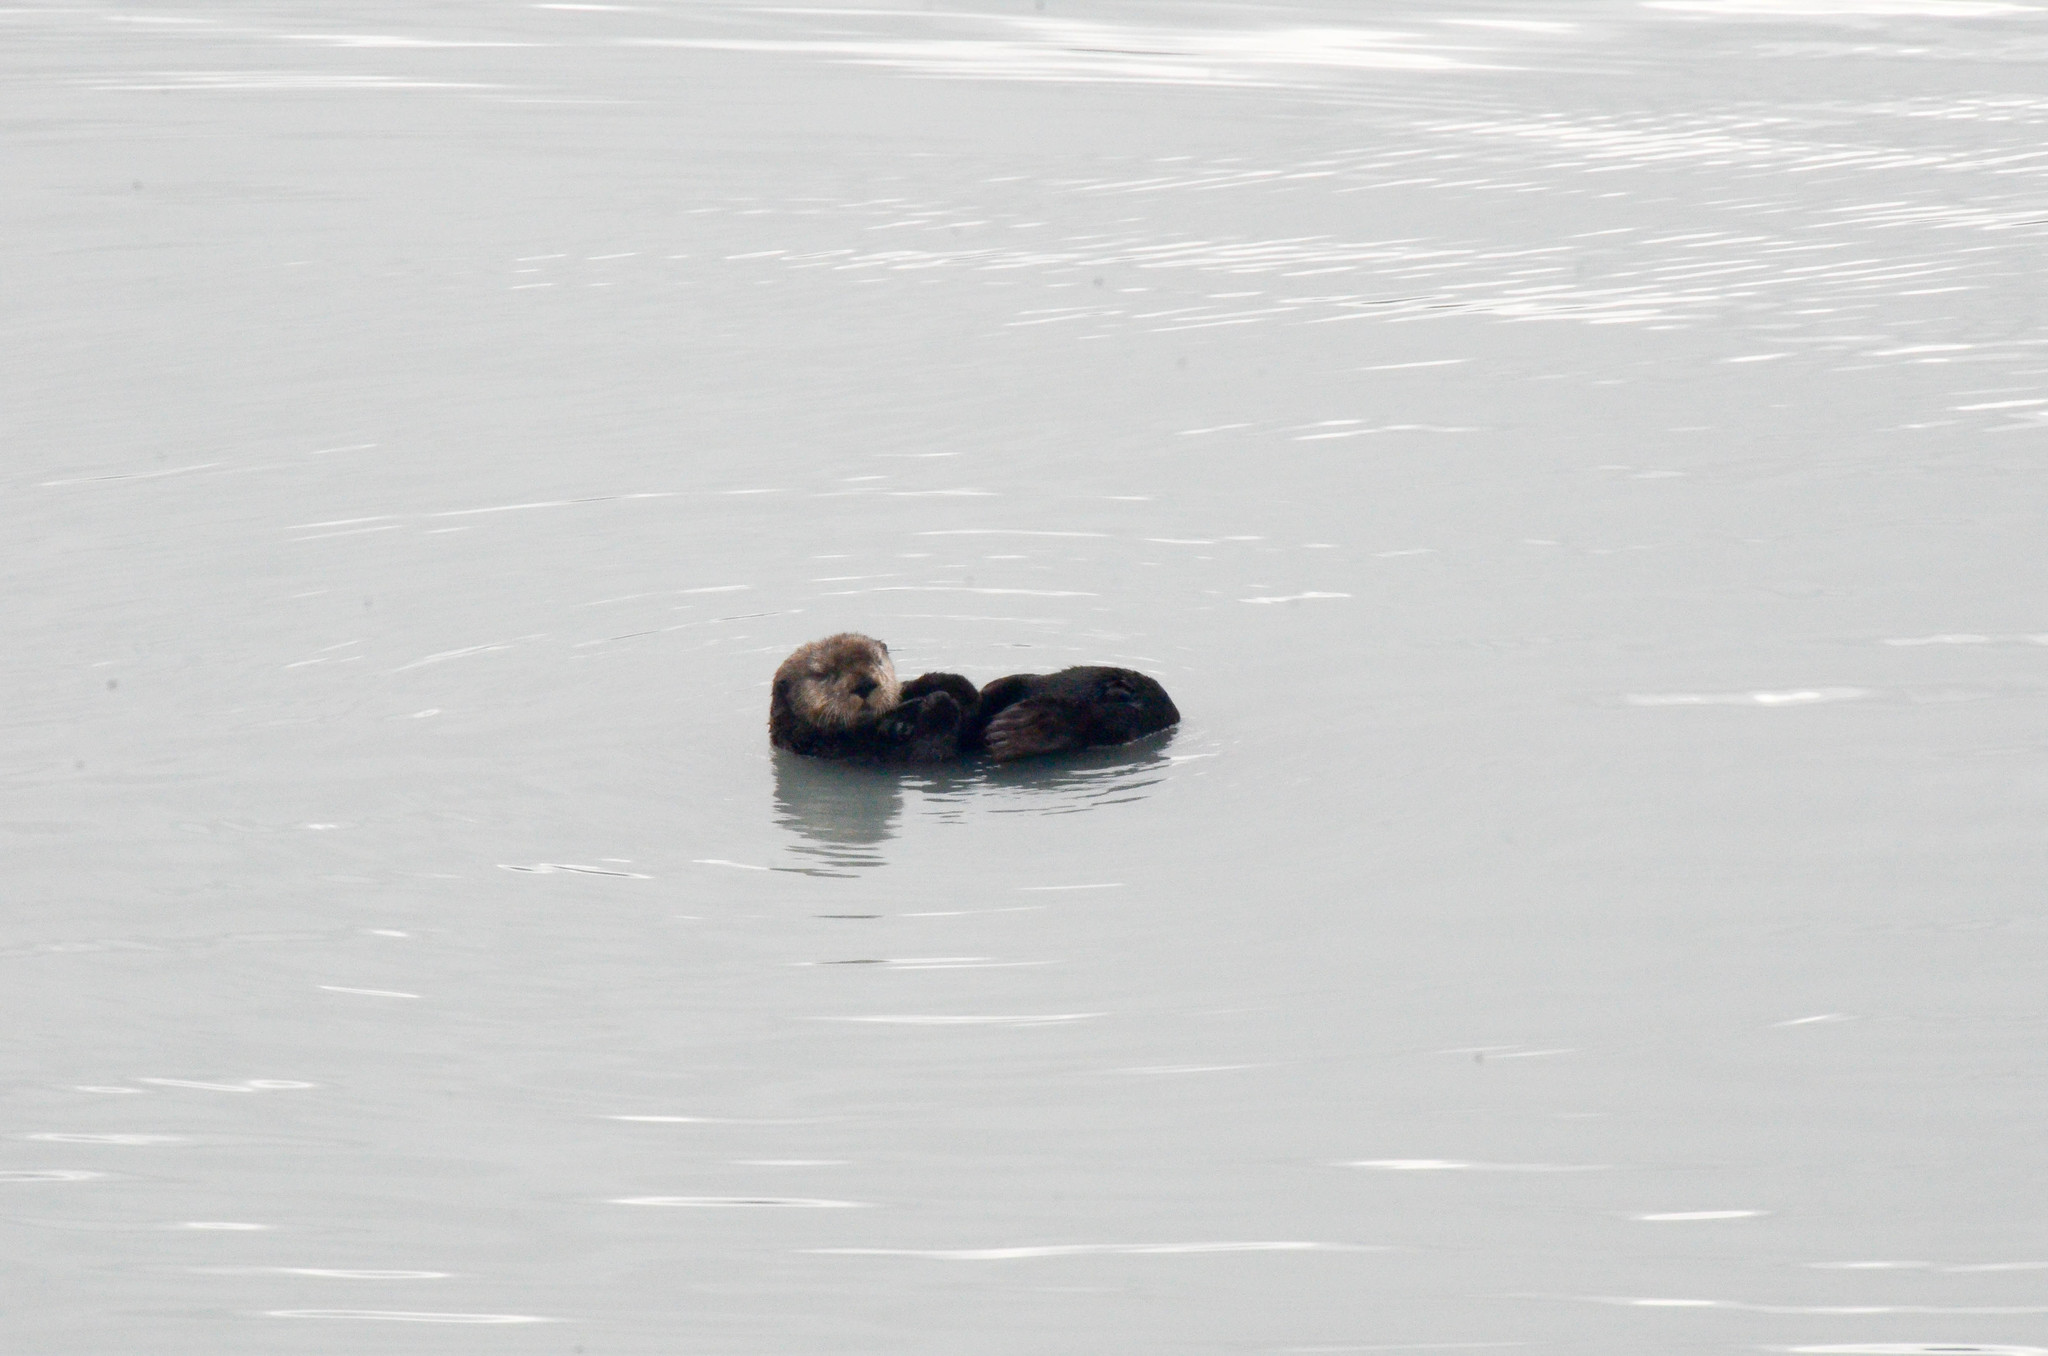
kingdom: Animalia
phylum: Chordata
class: Mammalia
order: Carnivora
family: Mustelidae
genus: Enhydra
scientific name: Enhydra lutris
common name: Sea otter
